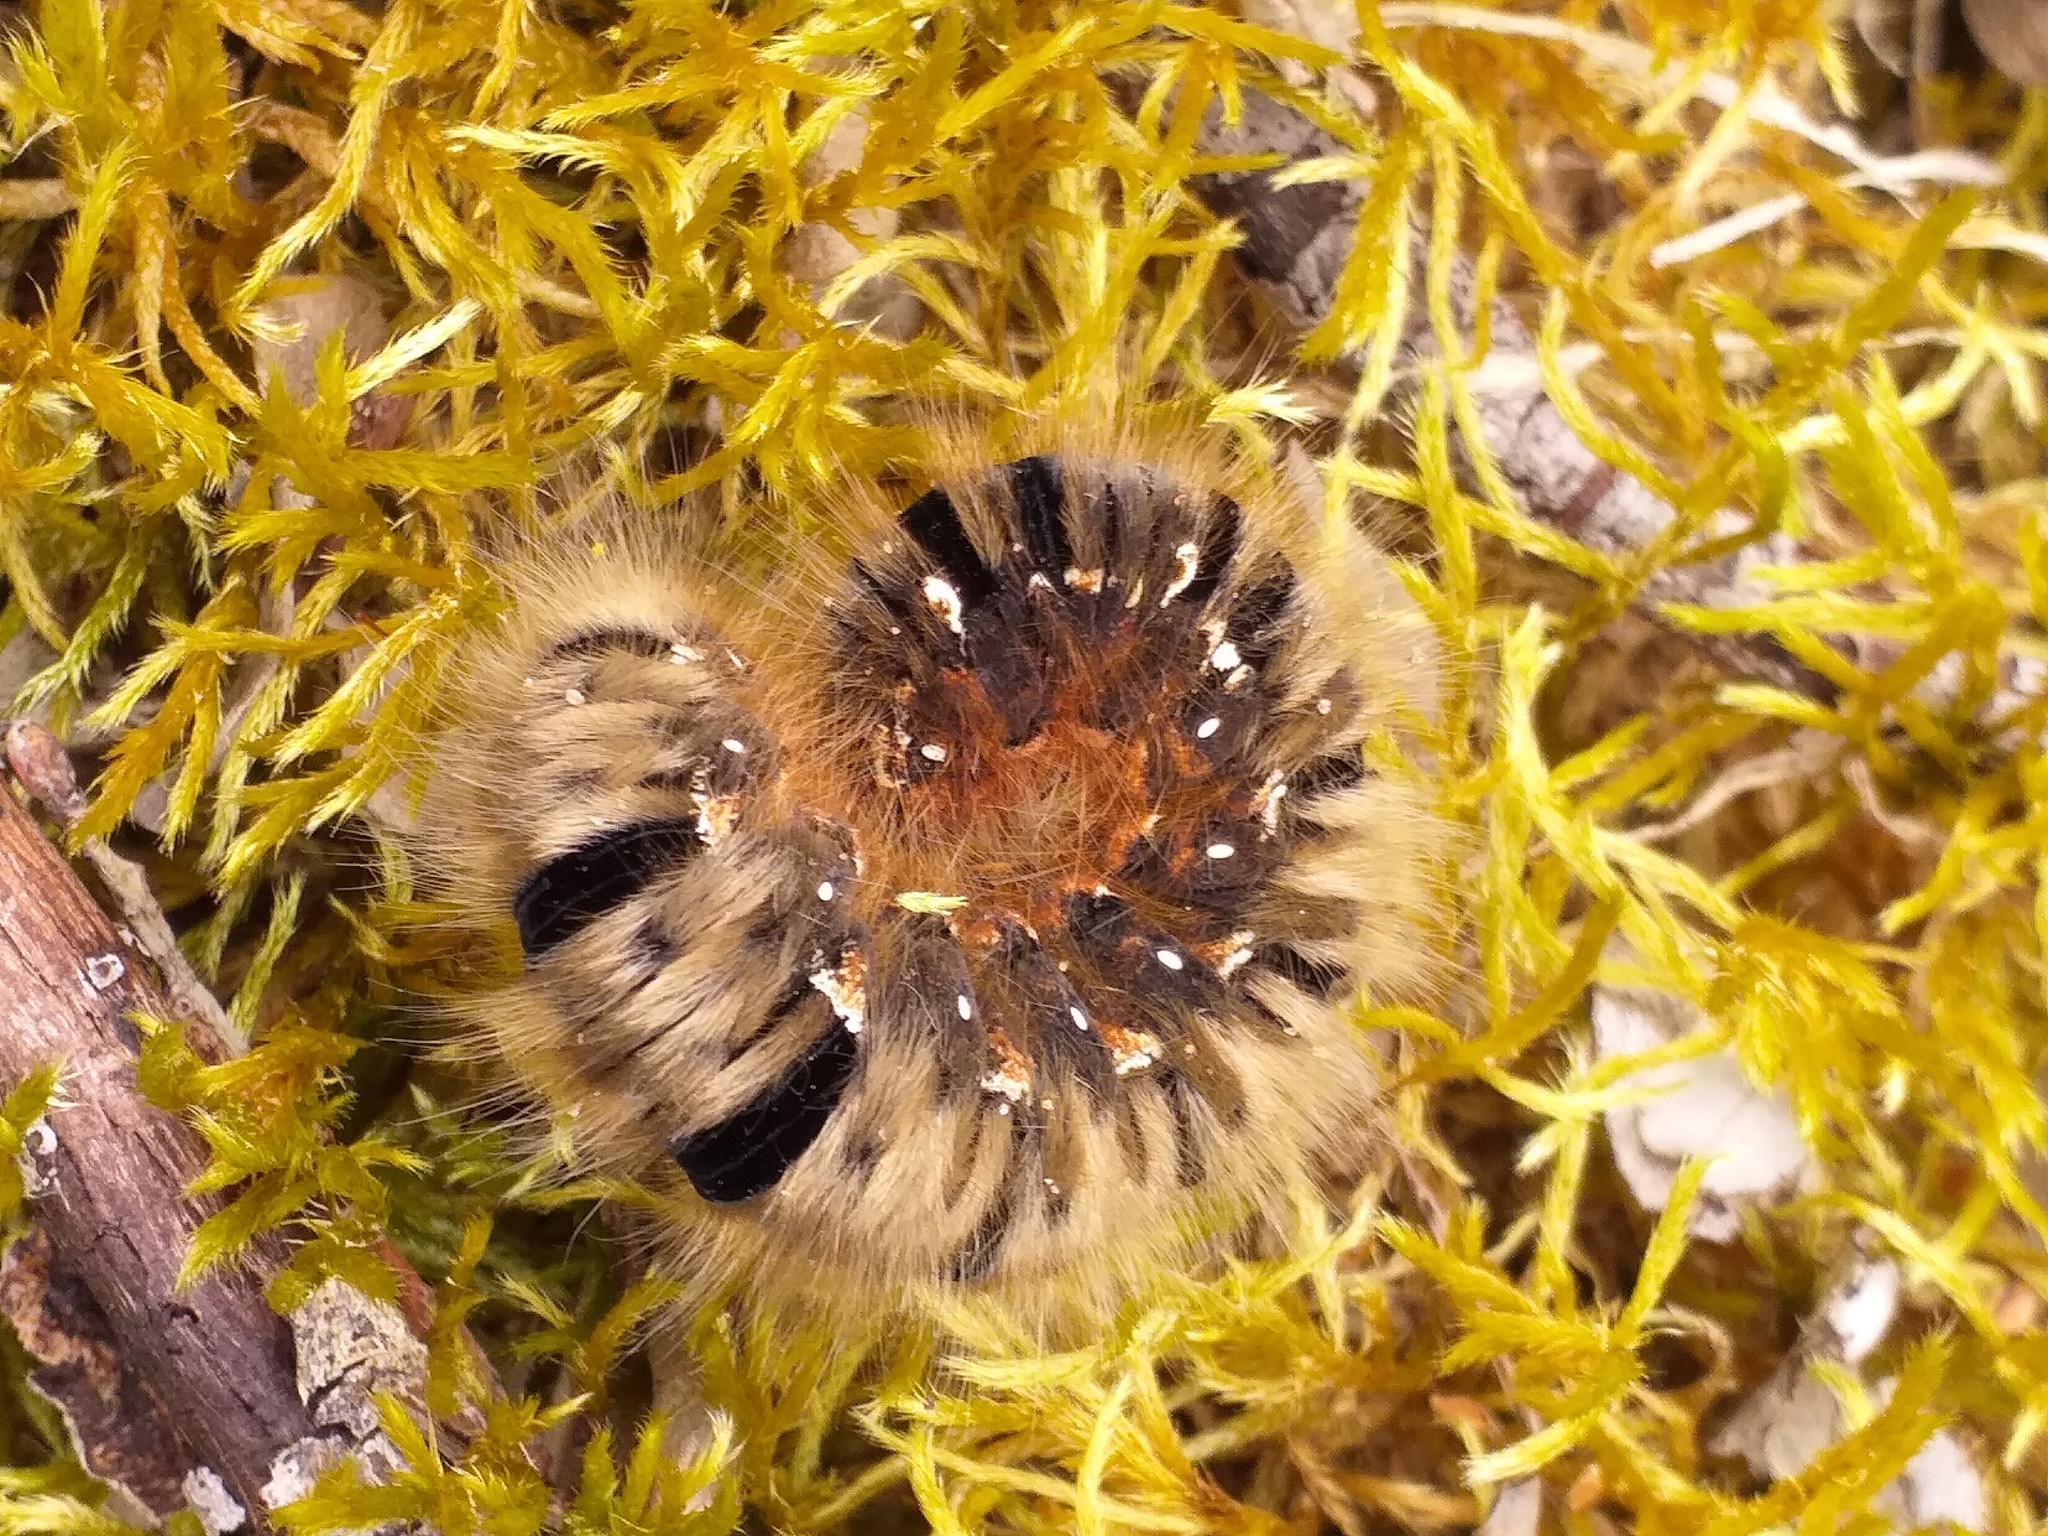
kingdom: Animalia
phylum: Arthropoda
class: Insecta
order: Lepidoptera
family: Lasiocampidae
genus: Lasiocampa
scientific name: Lasiocampa quercus
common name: Oak eggar
